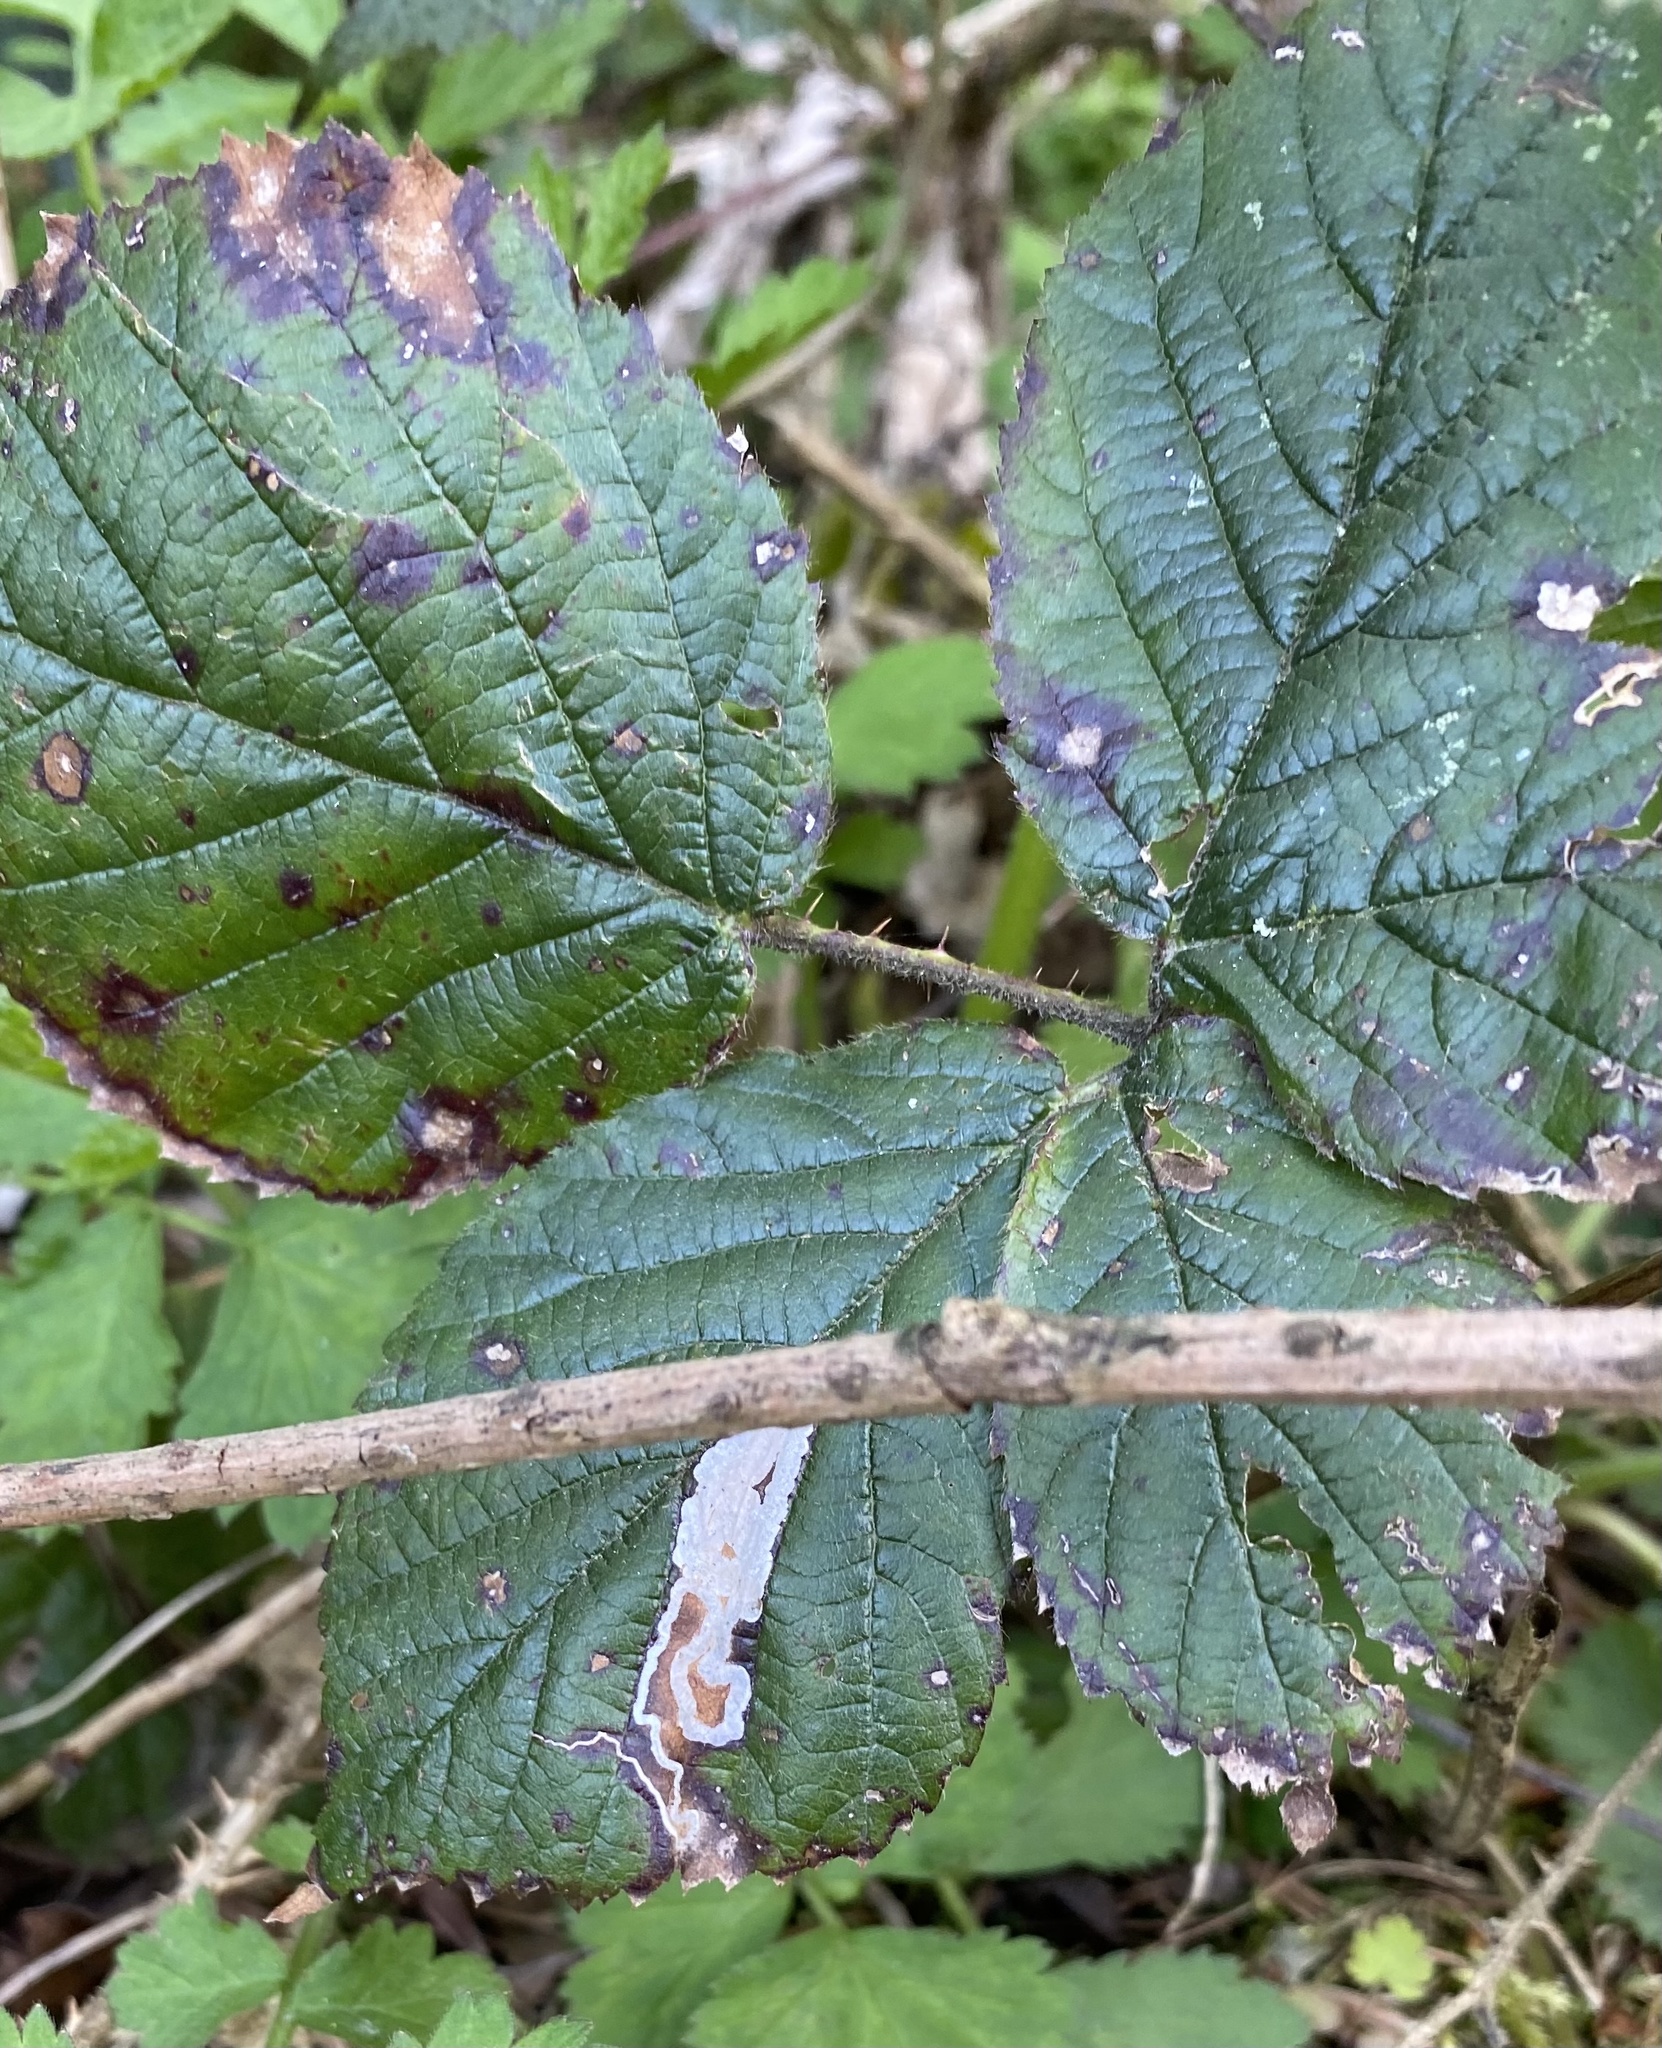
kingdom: Animalia
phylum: Arthropoda
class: Insecta
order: Lepidoptera
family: Nepticulidae
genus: Stigmella
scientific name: Stigmella aurella
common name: Golden pigmy
